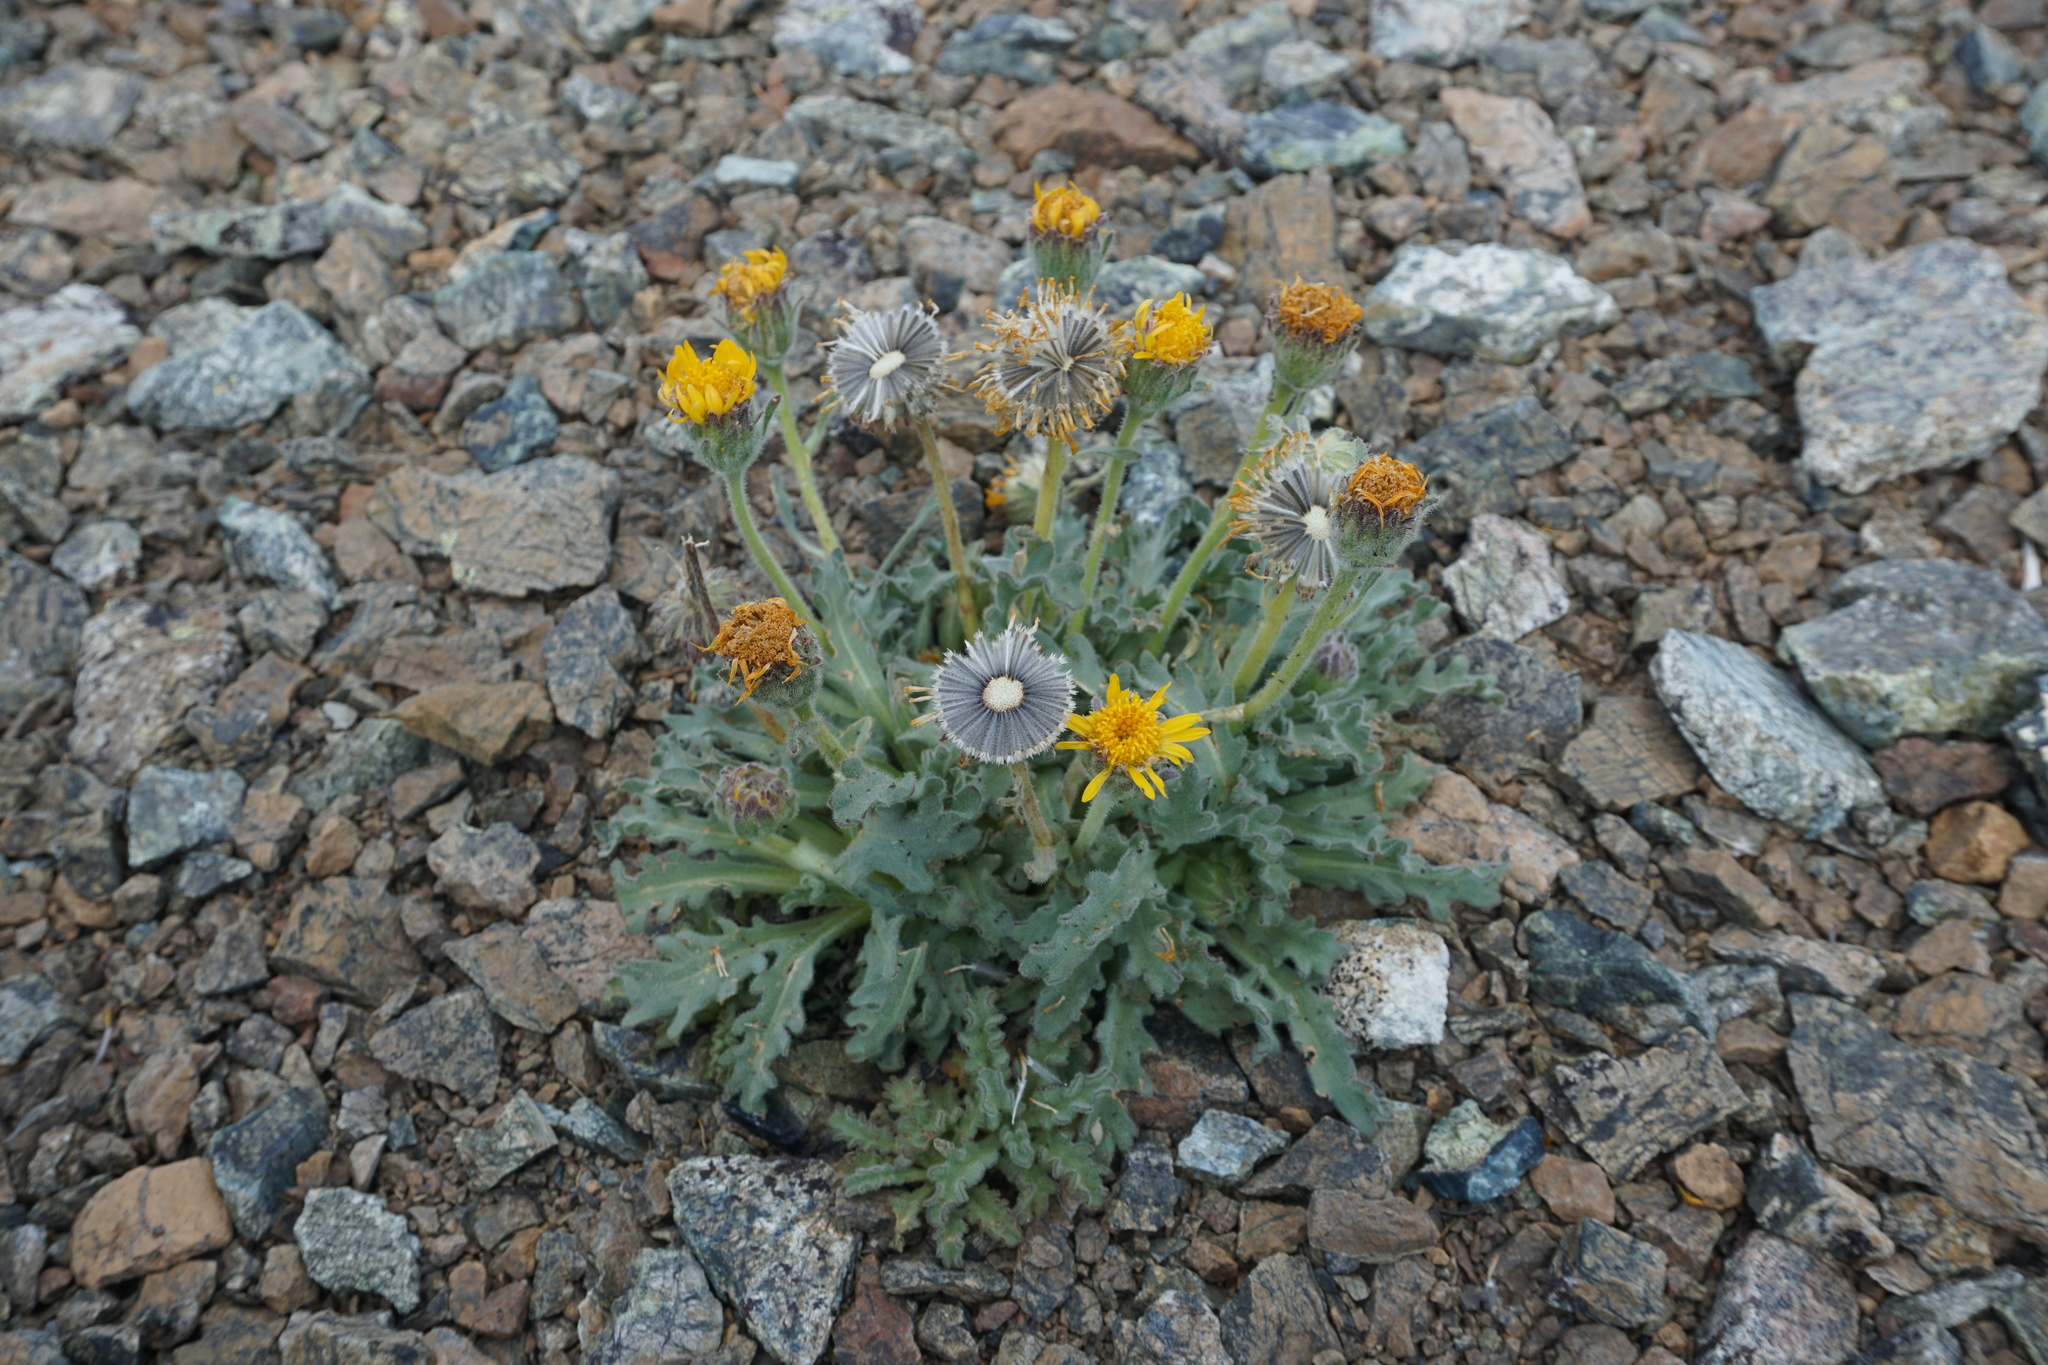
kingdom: Plantae
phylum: Tracheophyta
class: Magnoliopsida
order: Asterales
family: Asteraceae
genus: Hulsea
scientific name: Hulsea nana
